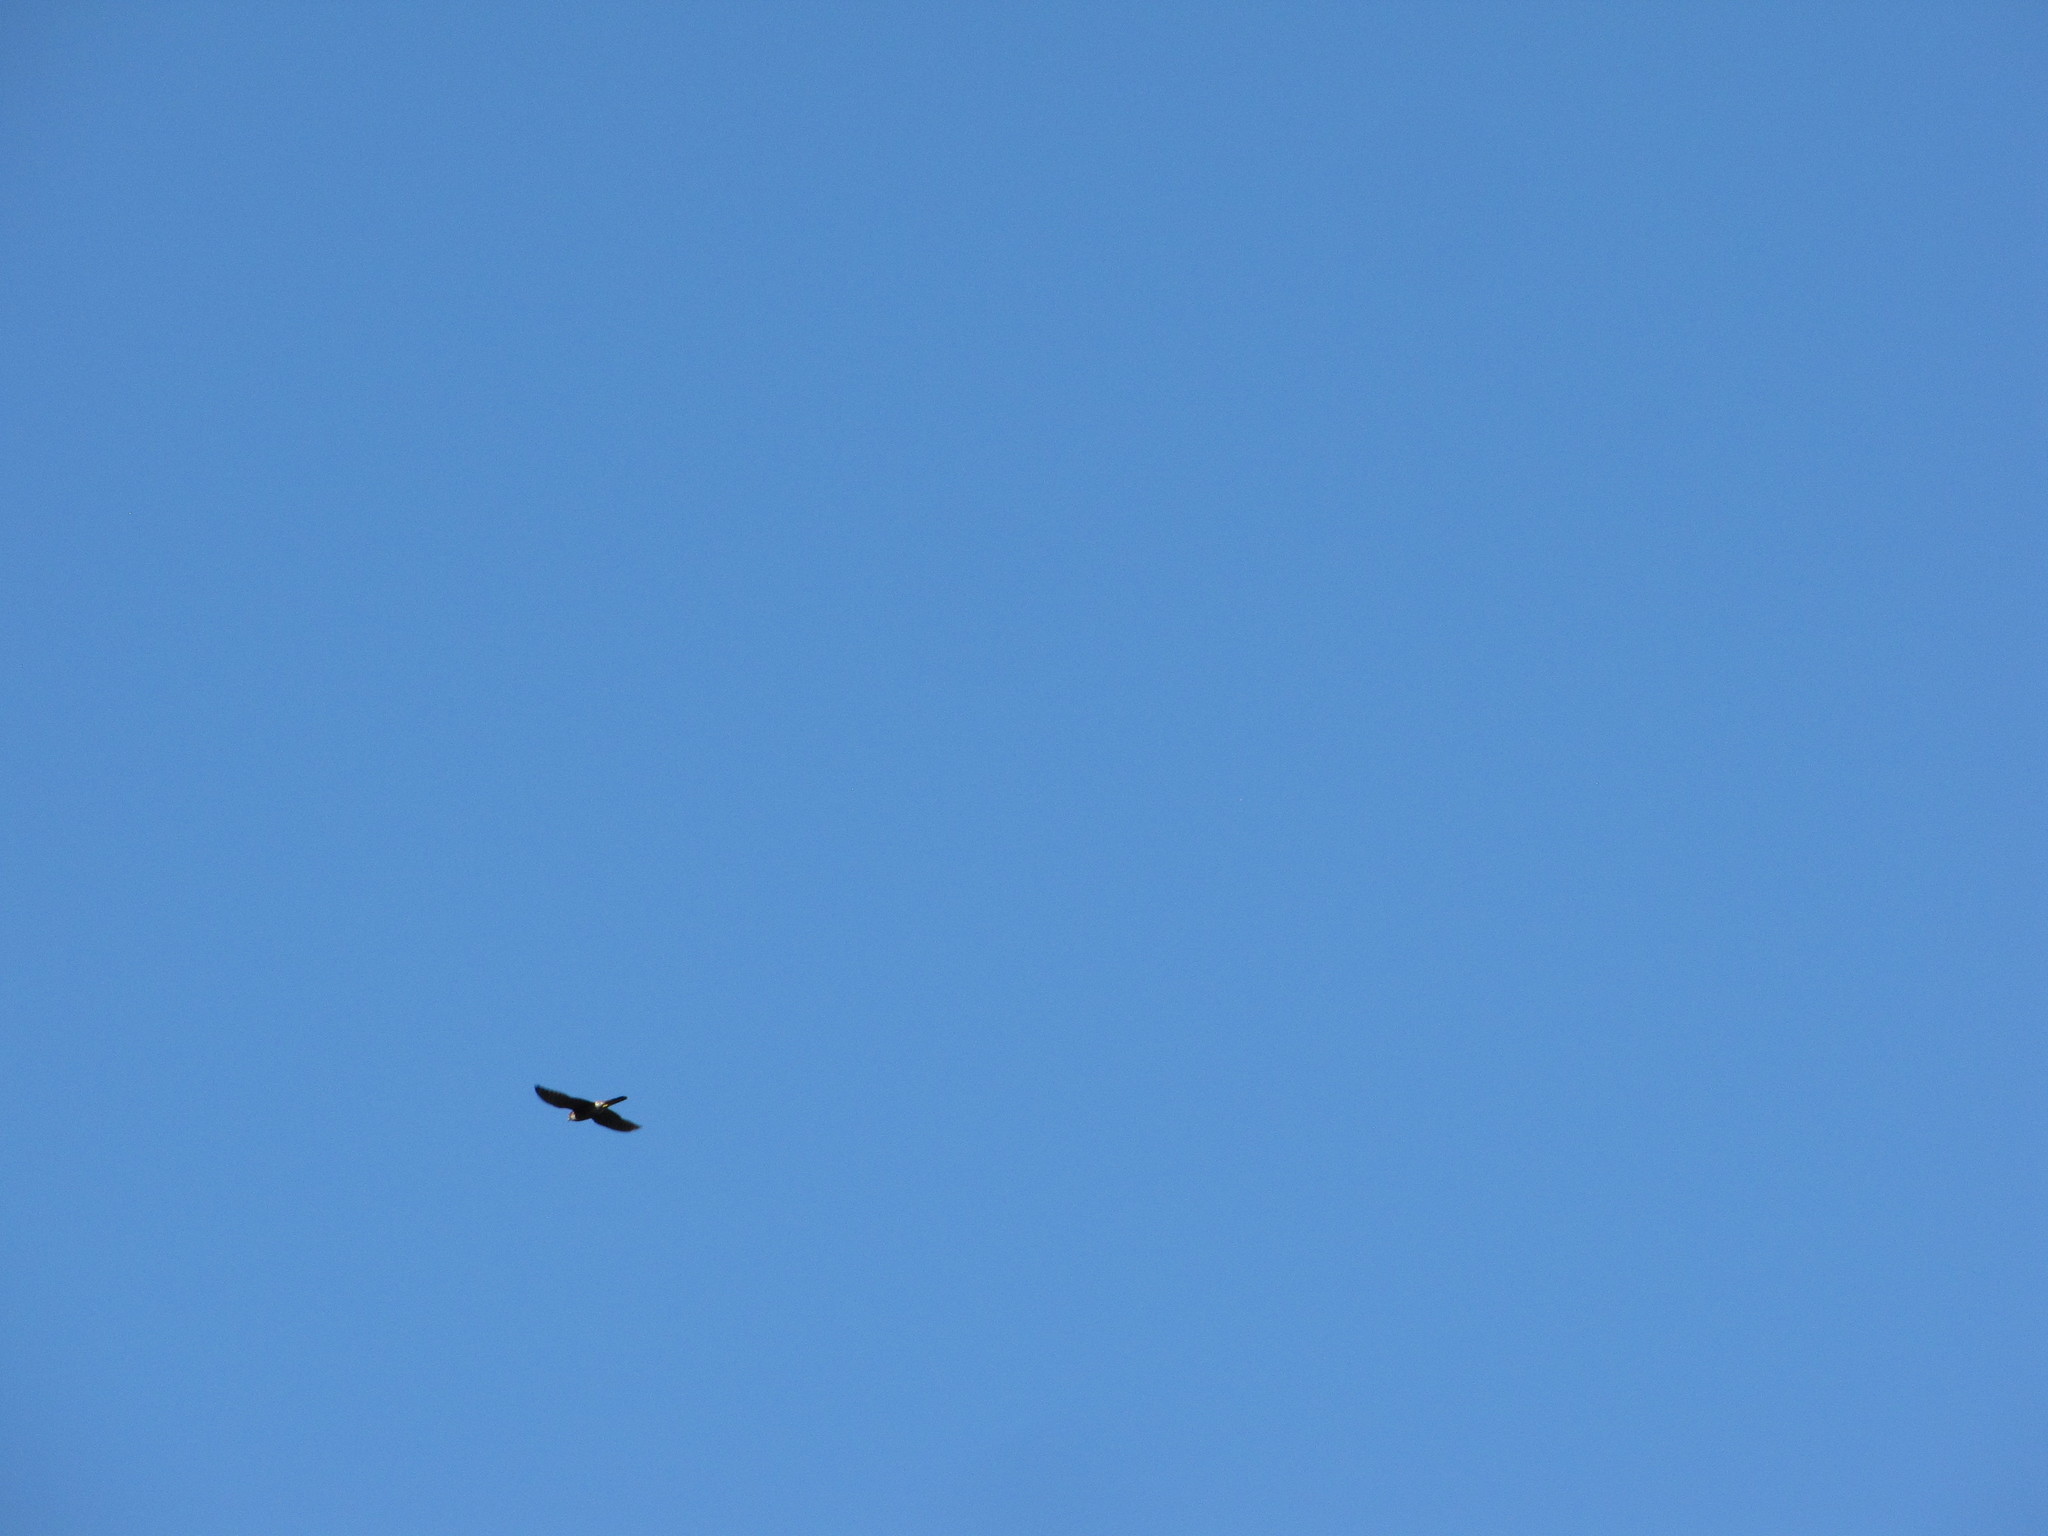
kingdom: Animalia
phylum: Chordata
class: Aves
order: Falconiformes
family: Falconidae
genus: Falco
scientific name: Falco columbarius
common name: Merlin
